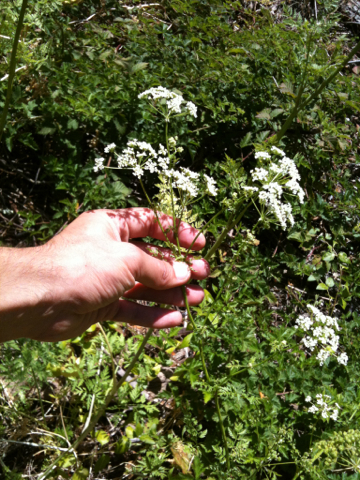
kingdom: Plantae
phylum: Tracheophyta
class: Magnoliopsida
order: Apiales
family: Apiaceae
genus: Conium
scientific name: Conium maculatum
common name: Hemlock
